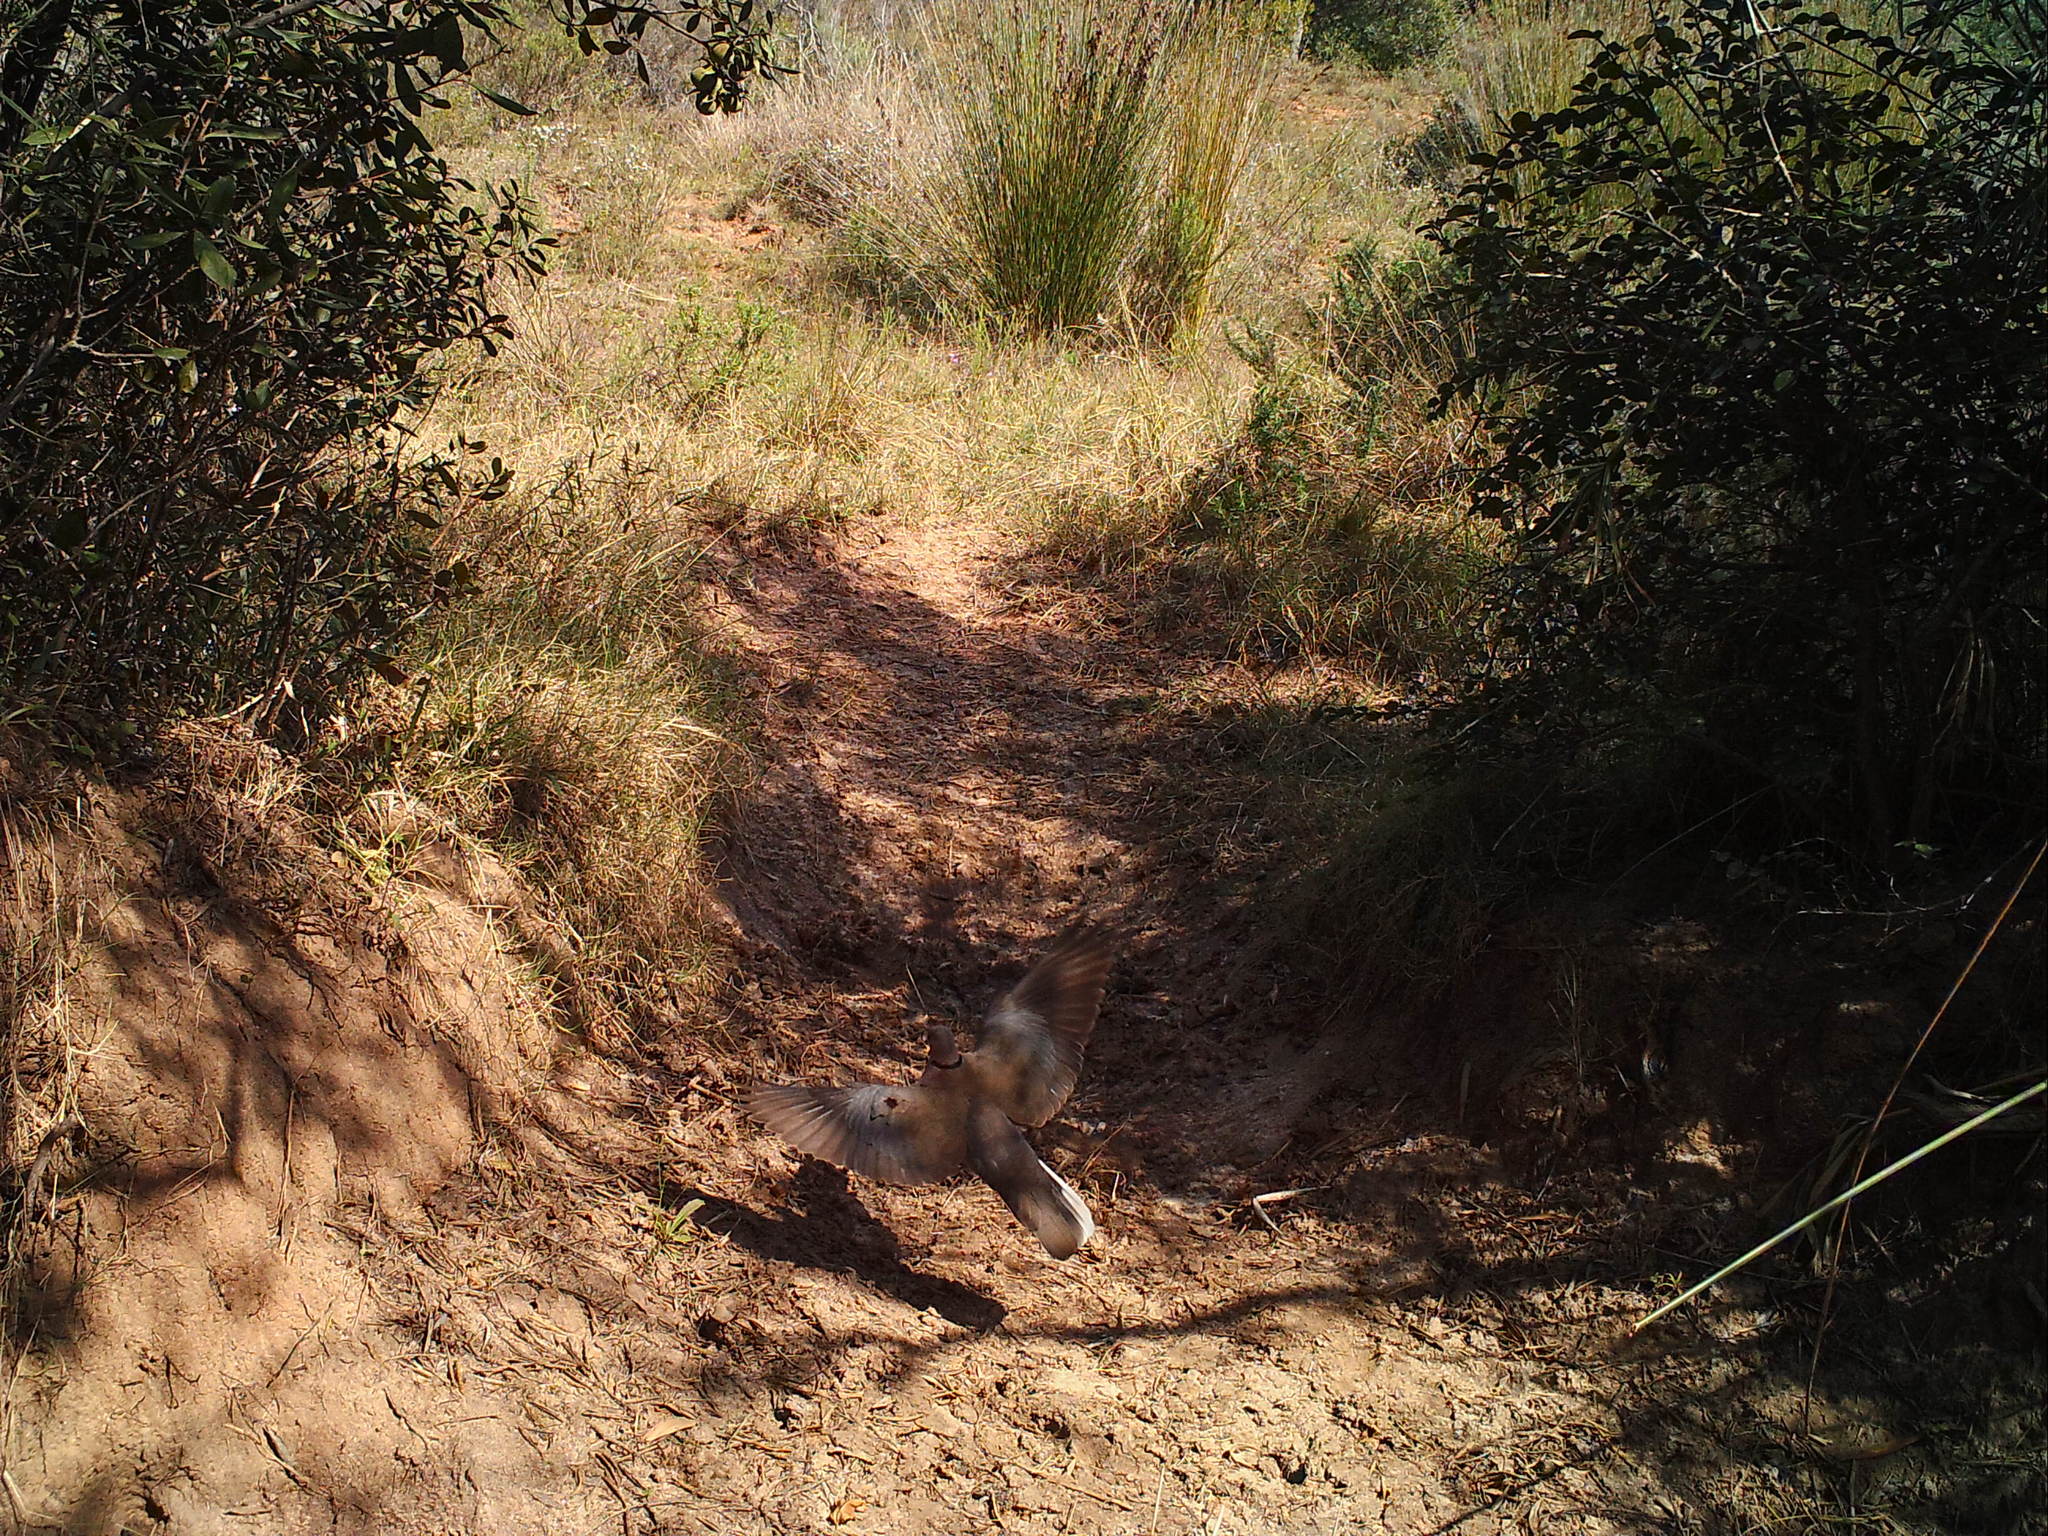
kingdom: Animalia
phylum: Chordata
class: Aves
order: Columbiformes
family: Columbidae
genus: Streptopelia
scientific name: Streptopelia capicola
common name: Ring-necked dove
